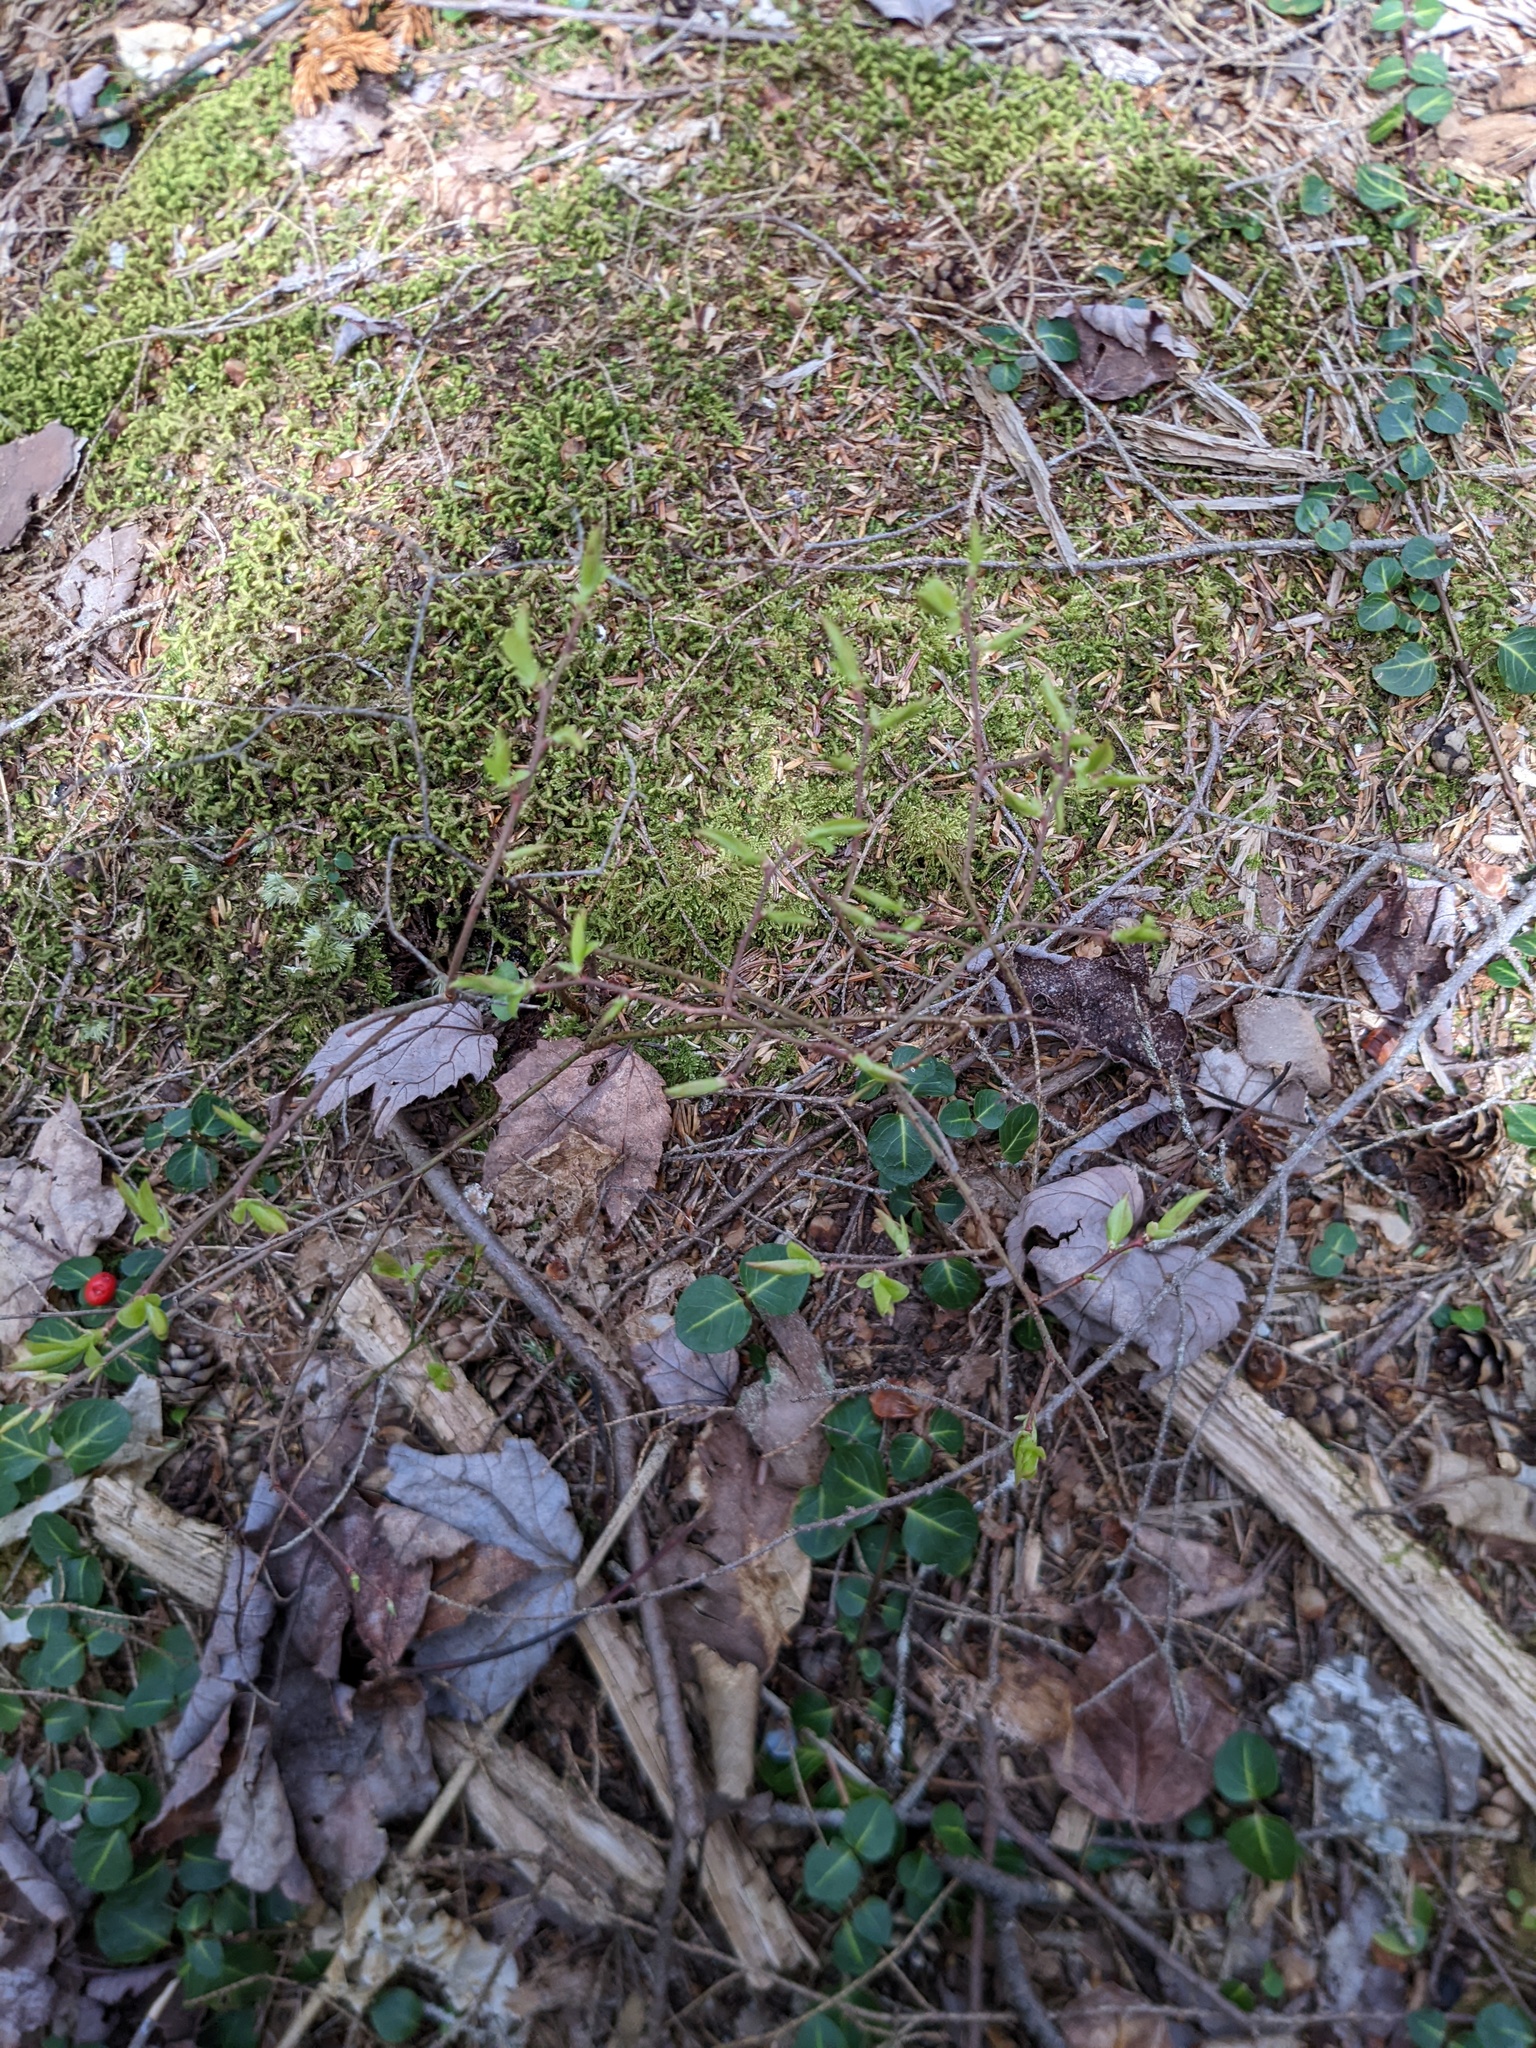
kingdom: Plantae
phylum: Tracheophyta
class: Magnoliopsida
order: Gentianales
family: Rubiaceae
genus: Mitchella
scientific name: Mitchella repens
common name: Partridge-berry
